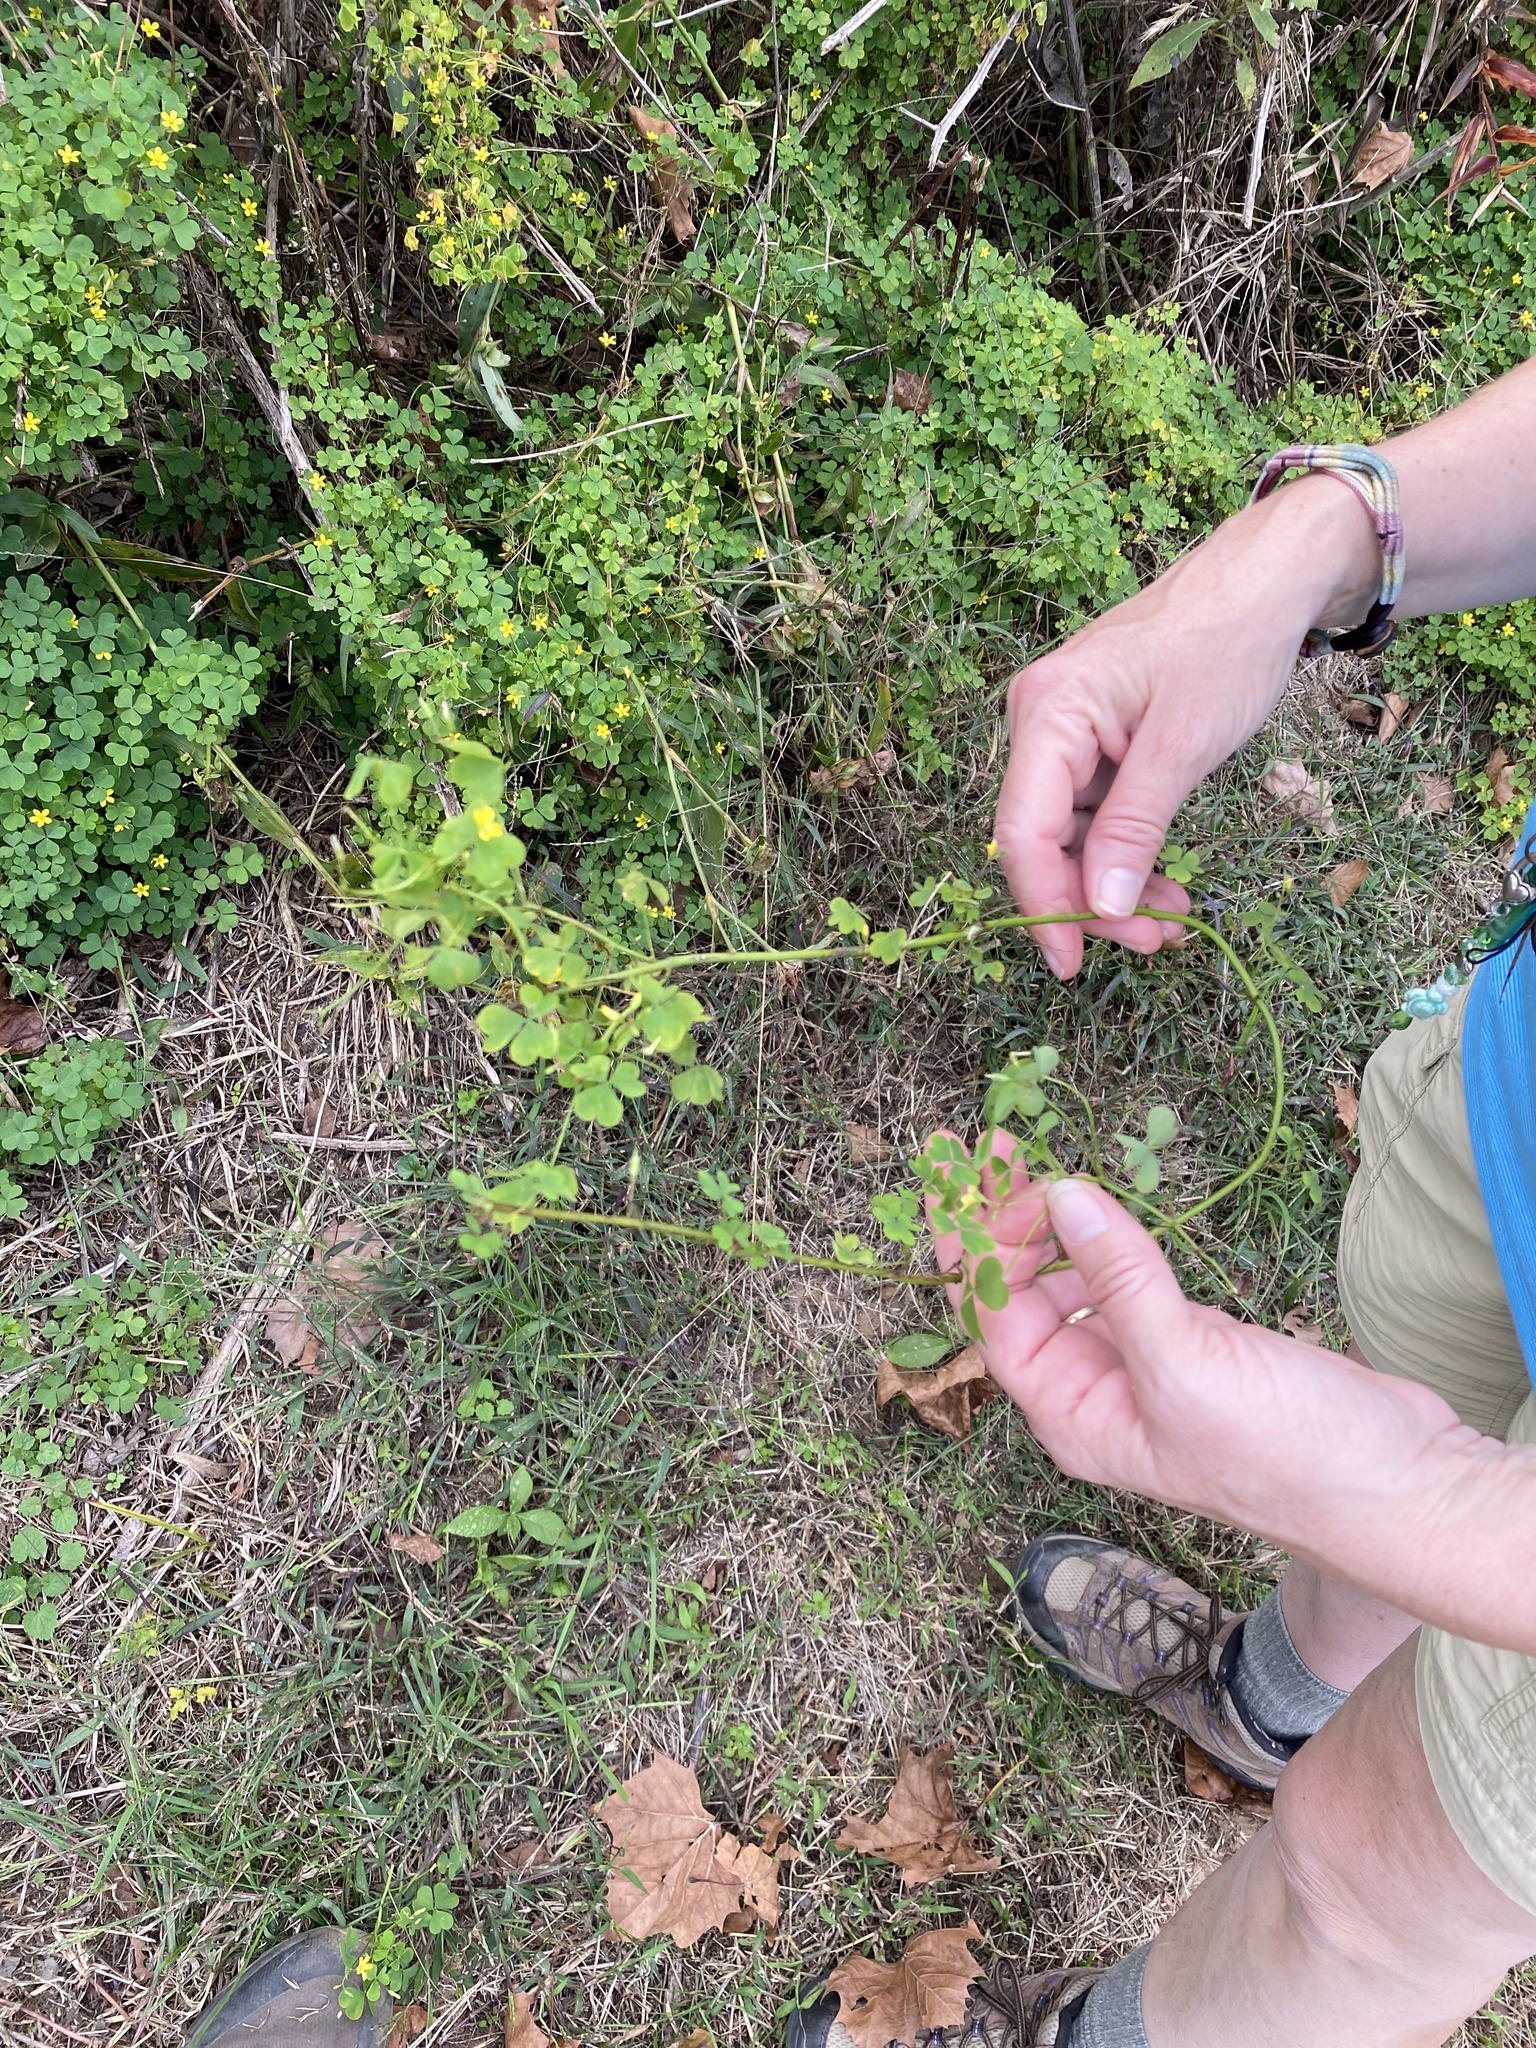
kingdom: Plantae
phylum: Tracheophyta
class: Magnoliopsida
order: Oxalidales
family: Oxalidaceae
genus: Oxalis
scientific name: Oxalis stricta
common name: Upright yellow-sorrel
